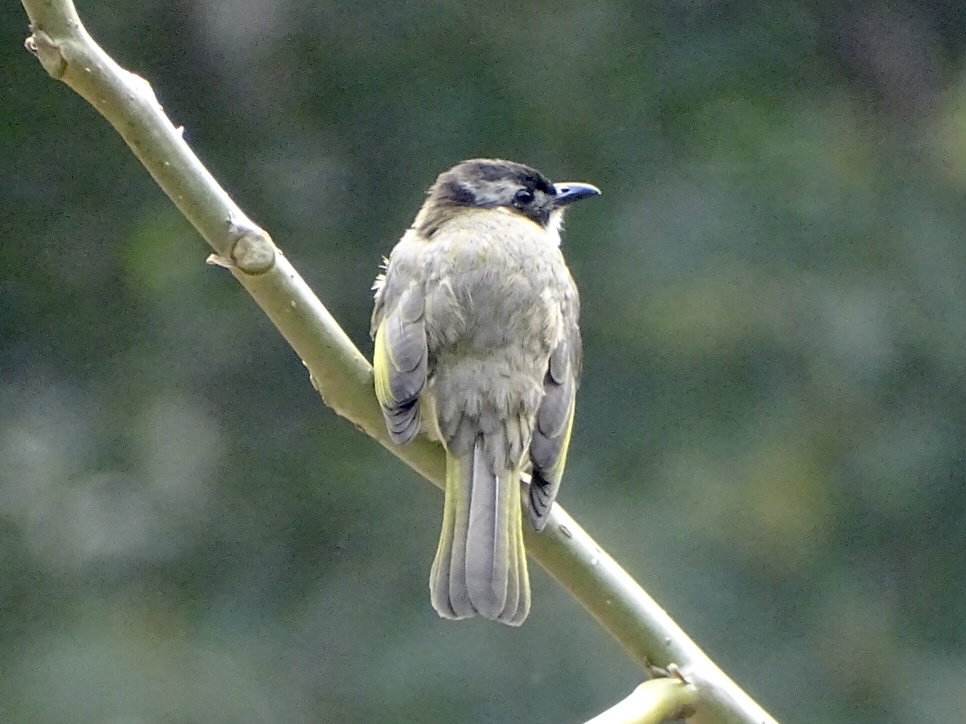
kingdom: Animalia
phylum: Chordata
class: Aves
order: Passeriformes
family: Pycnonotidae
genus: Pycnonotus
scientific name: Pycnonotus sinensis
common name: Light-vented bulbul
